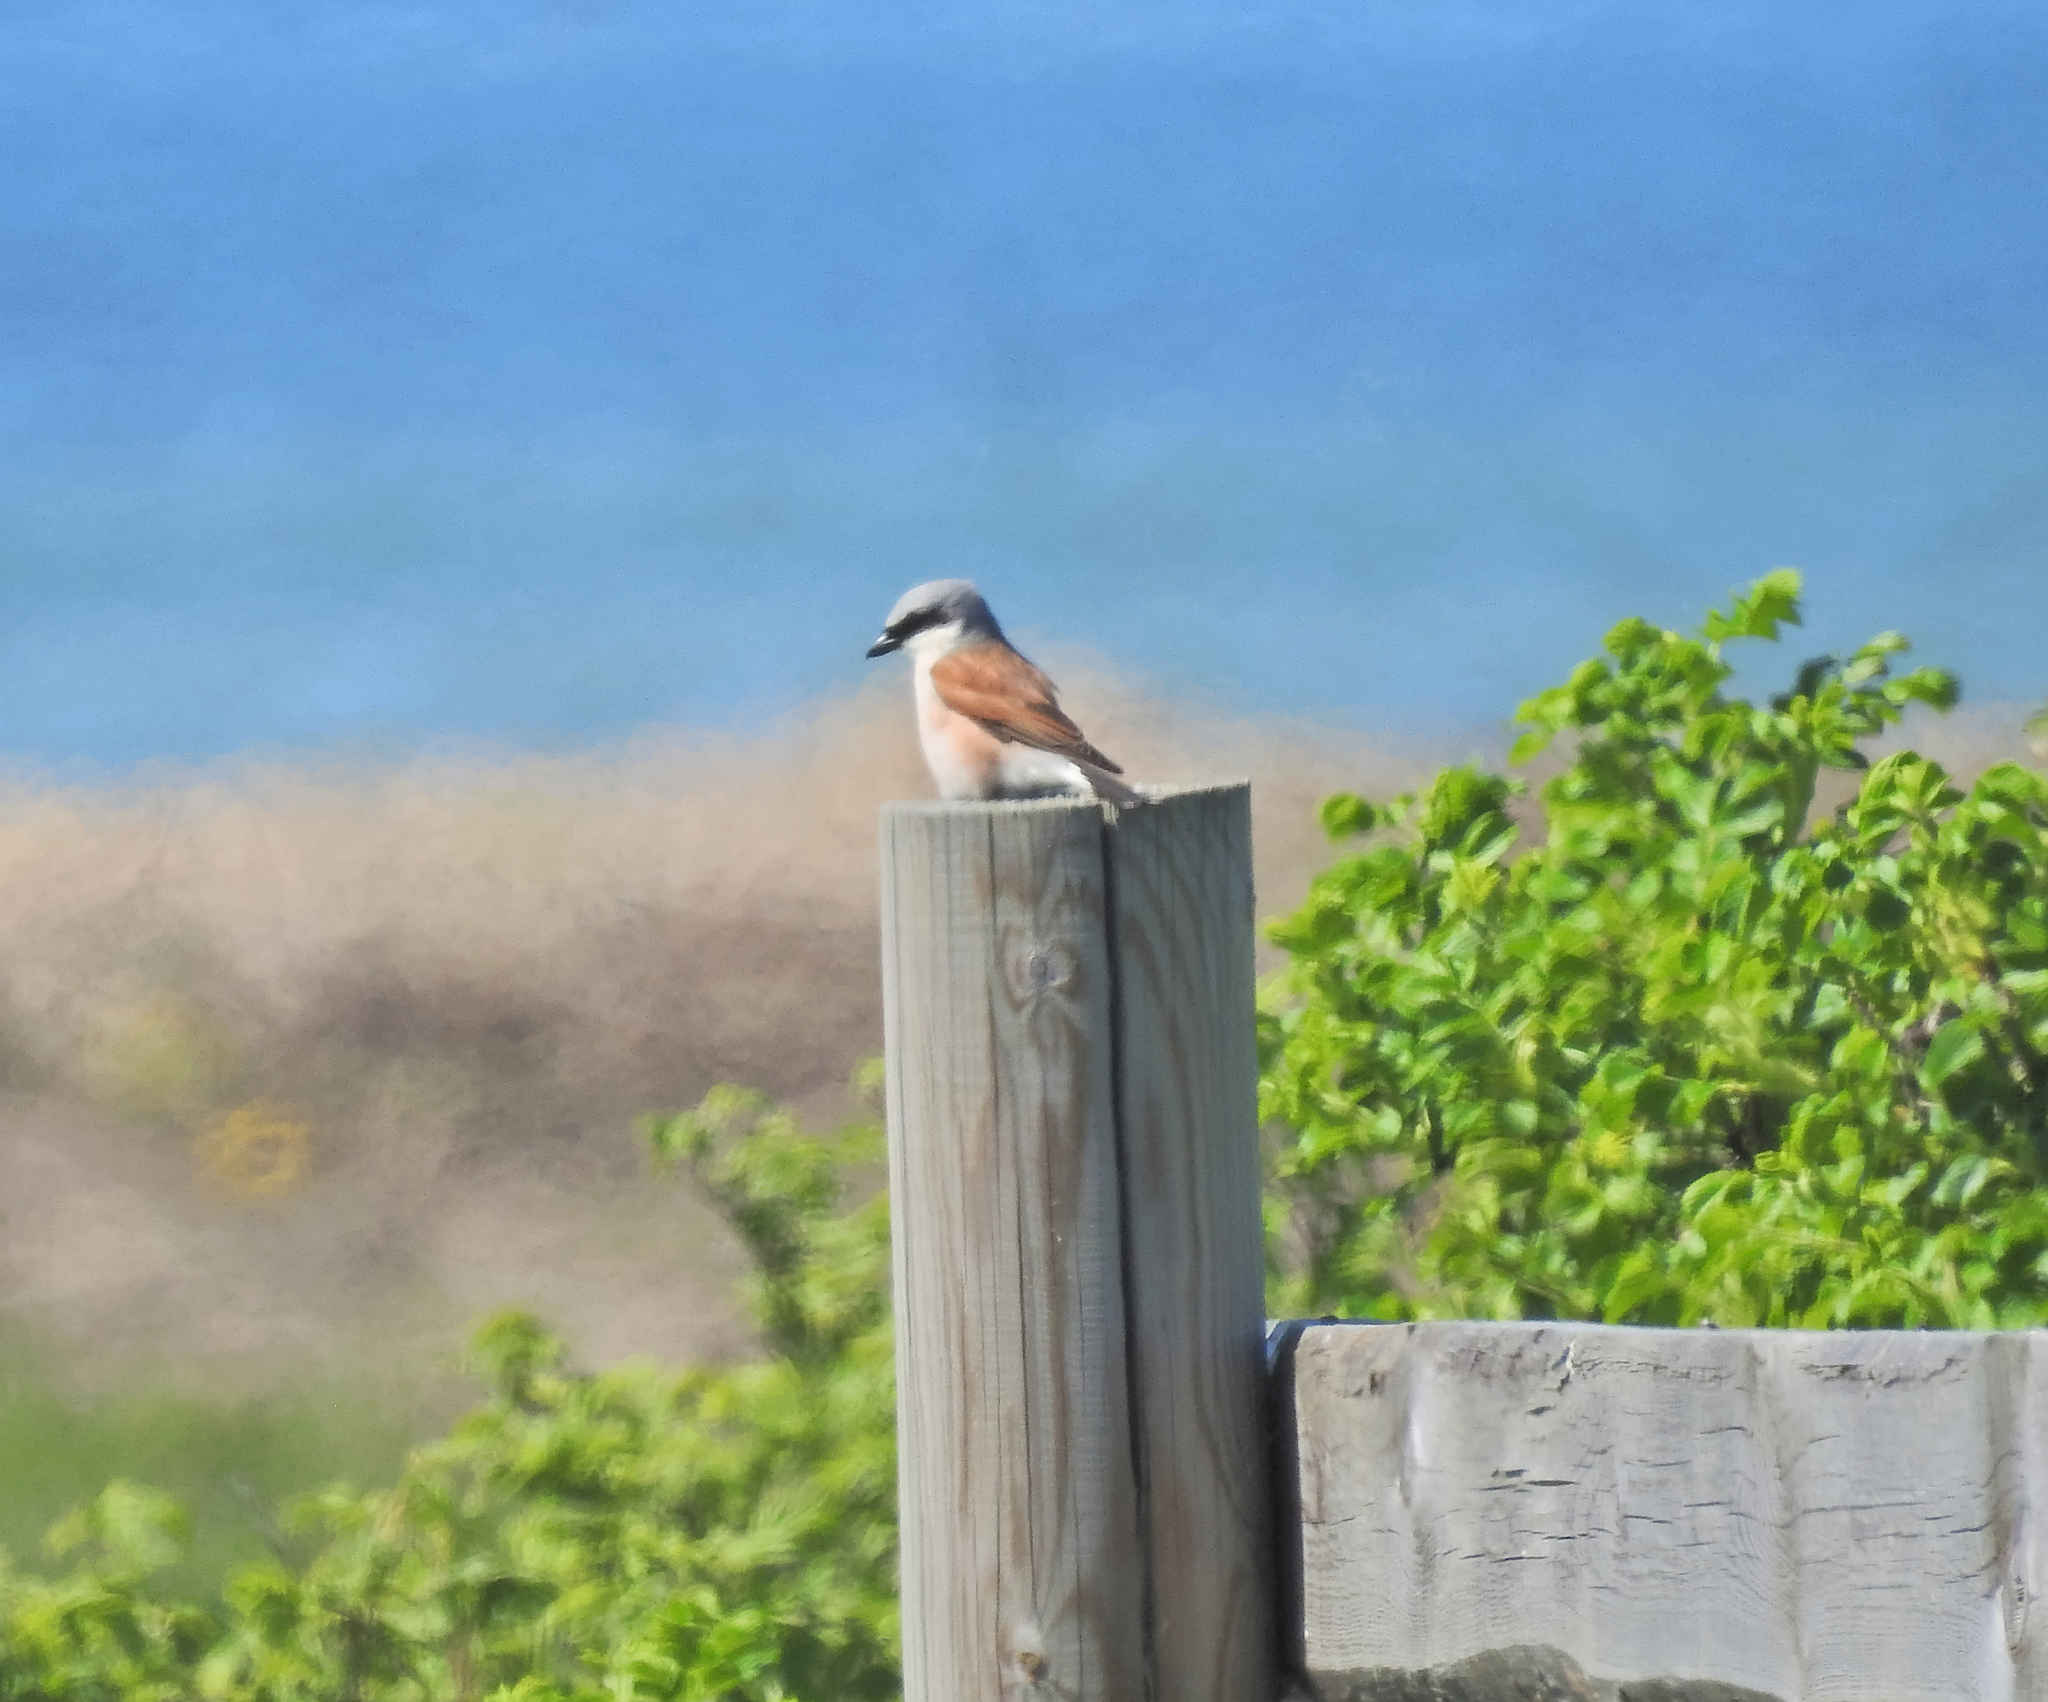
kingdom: Animalia
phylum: Chordata
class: Aves
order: Passeriformes
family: Laniidae
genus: Lanius
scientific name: Lanius collurio
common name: Red-backed shrike
